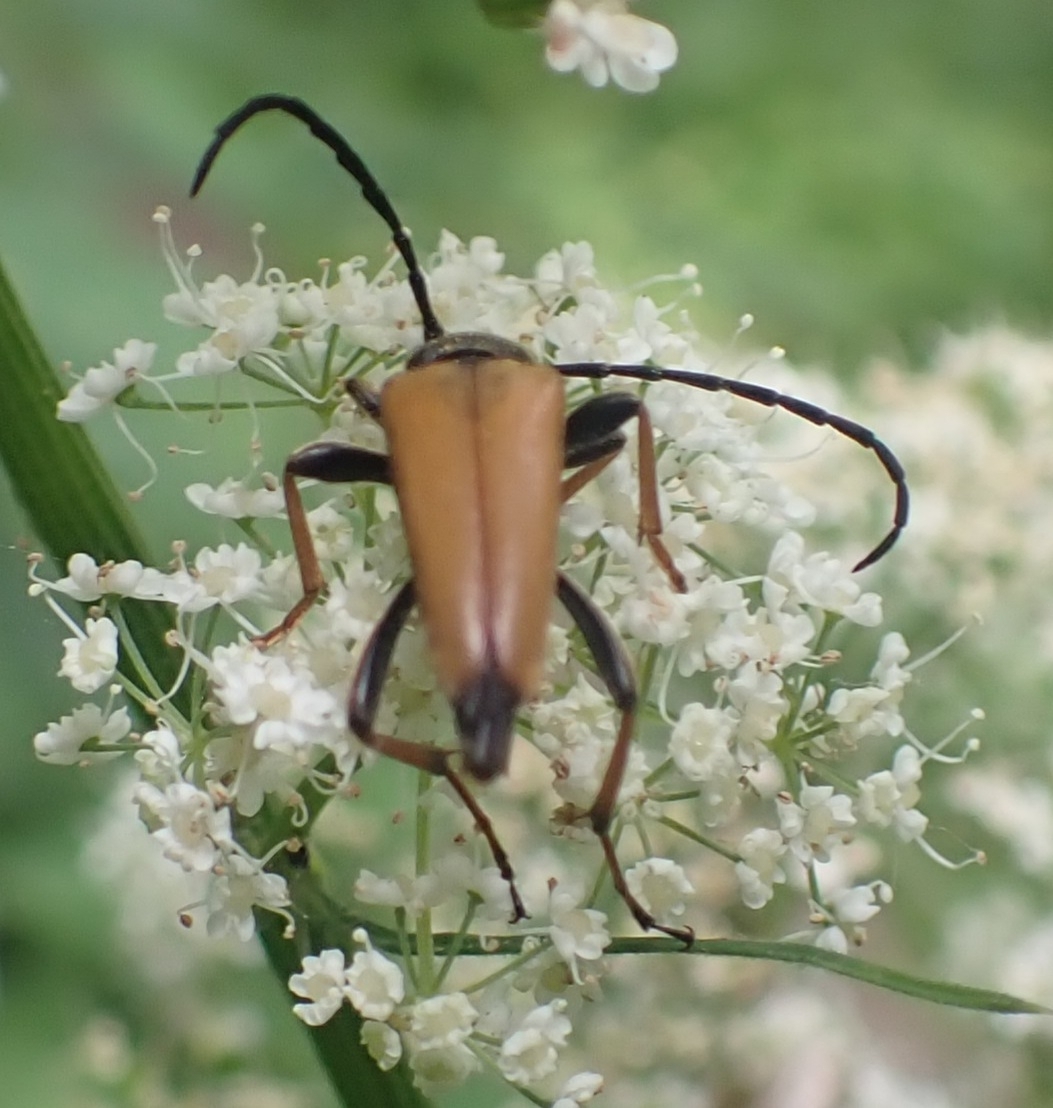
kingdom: Animalia
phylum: Arthropoda
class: Insecta
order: Coleoptera
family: Cerambycidae
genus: Stictoleptura
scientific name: Stictoleptura rubra
